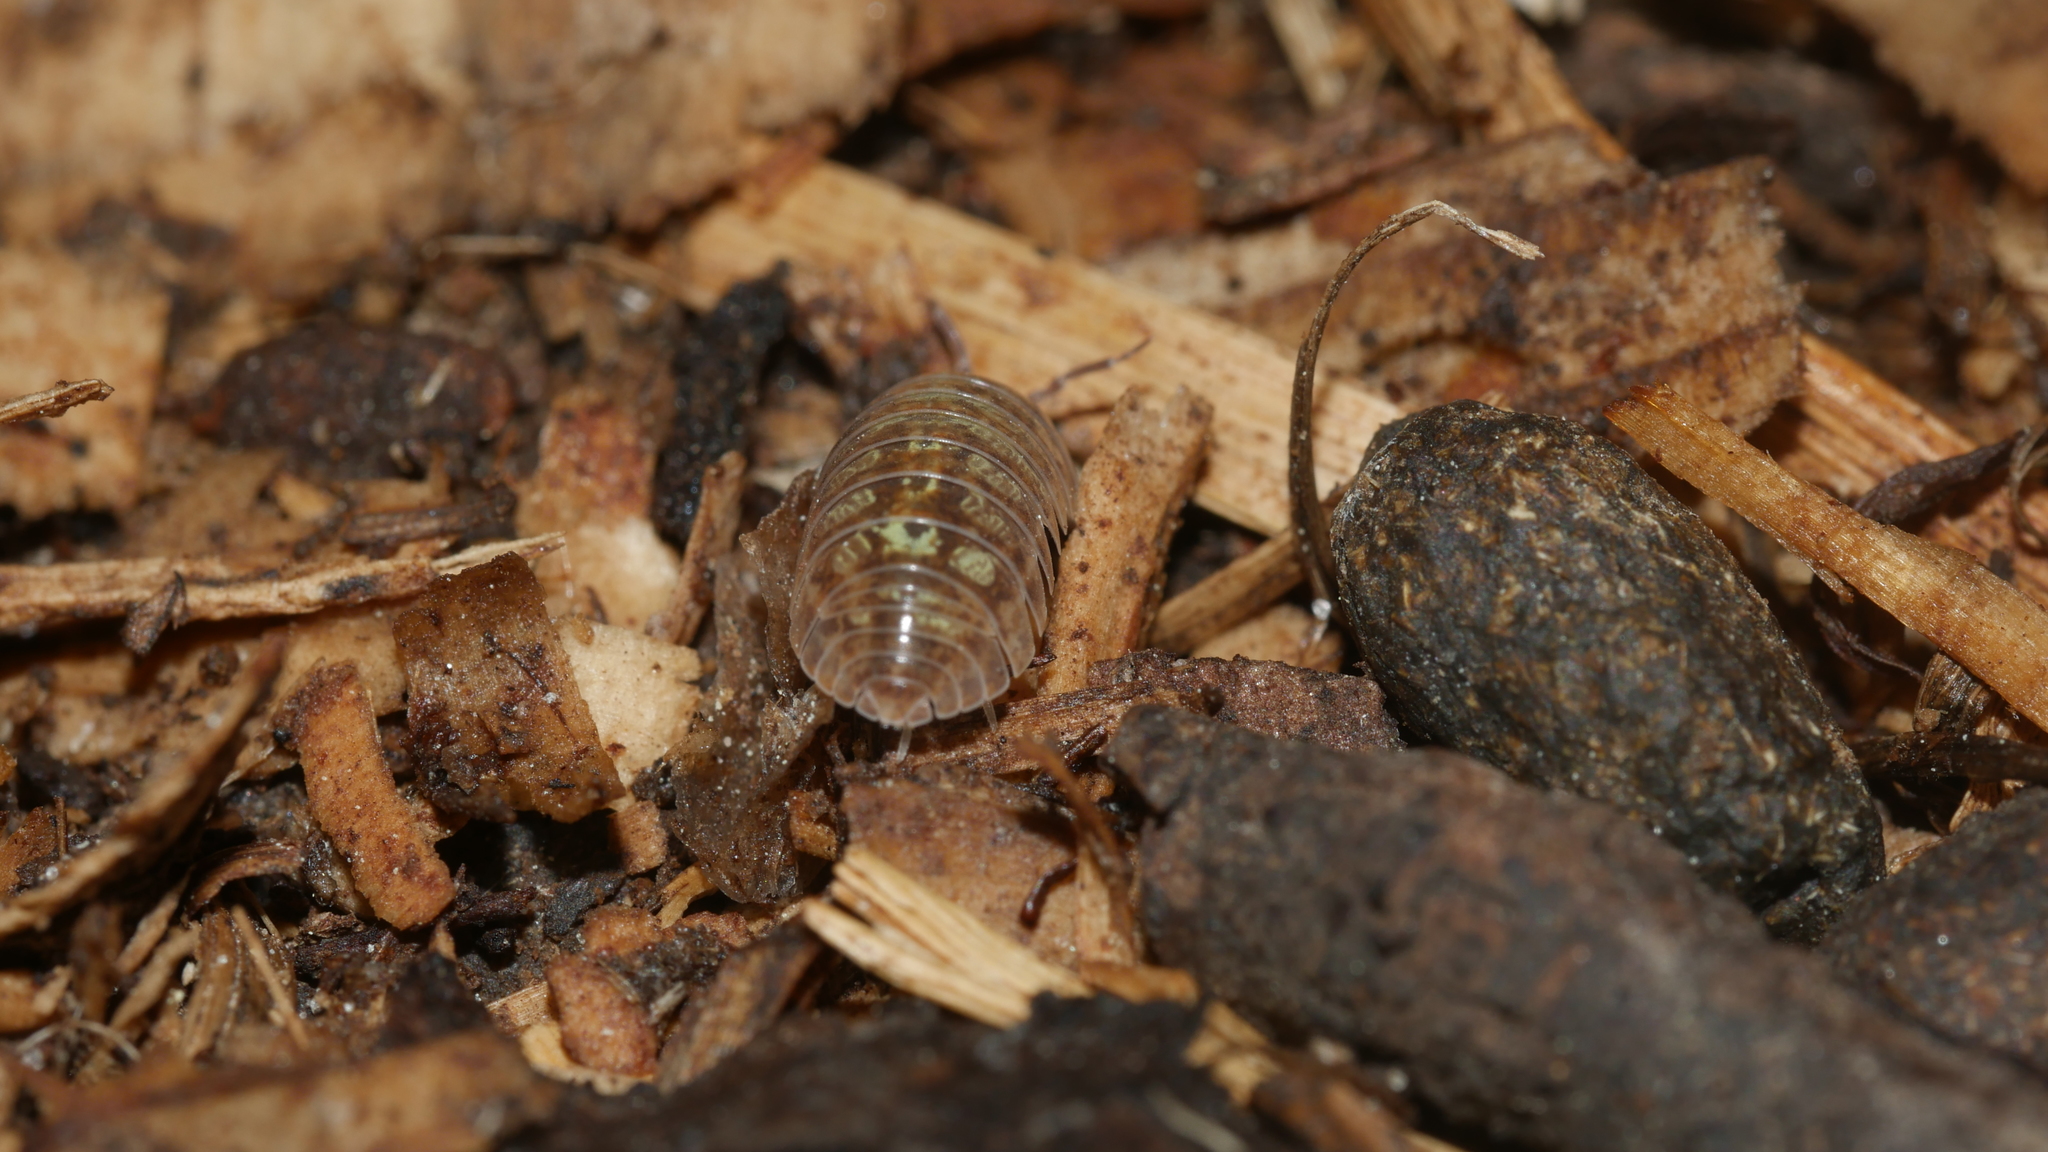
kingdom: Animalia
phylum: Arthropoda
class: Malacostraca
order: Isopoda
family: Armadillidiidae
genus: Armadillidium
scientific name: Armadillidium vulgare
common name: Common pill woodlouse
